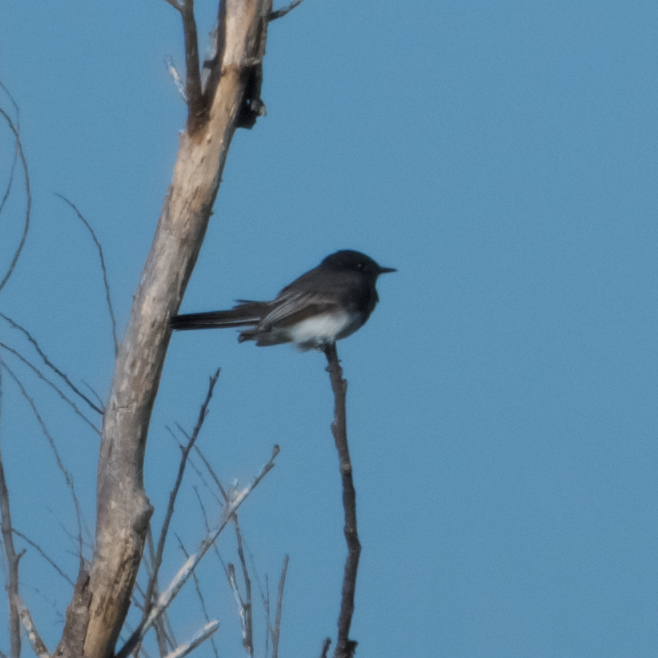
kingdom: Animalia
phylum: Chordata
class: Aves
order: Passeriformes
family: Tyrannidae
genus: Sayornis
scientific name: Sayornis nigricans
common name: Black phoebe
